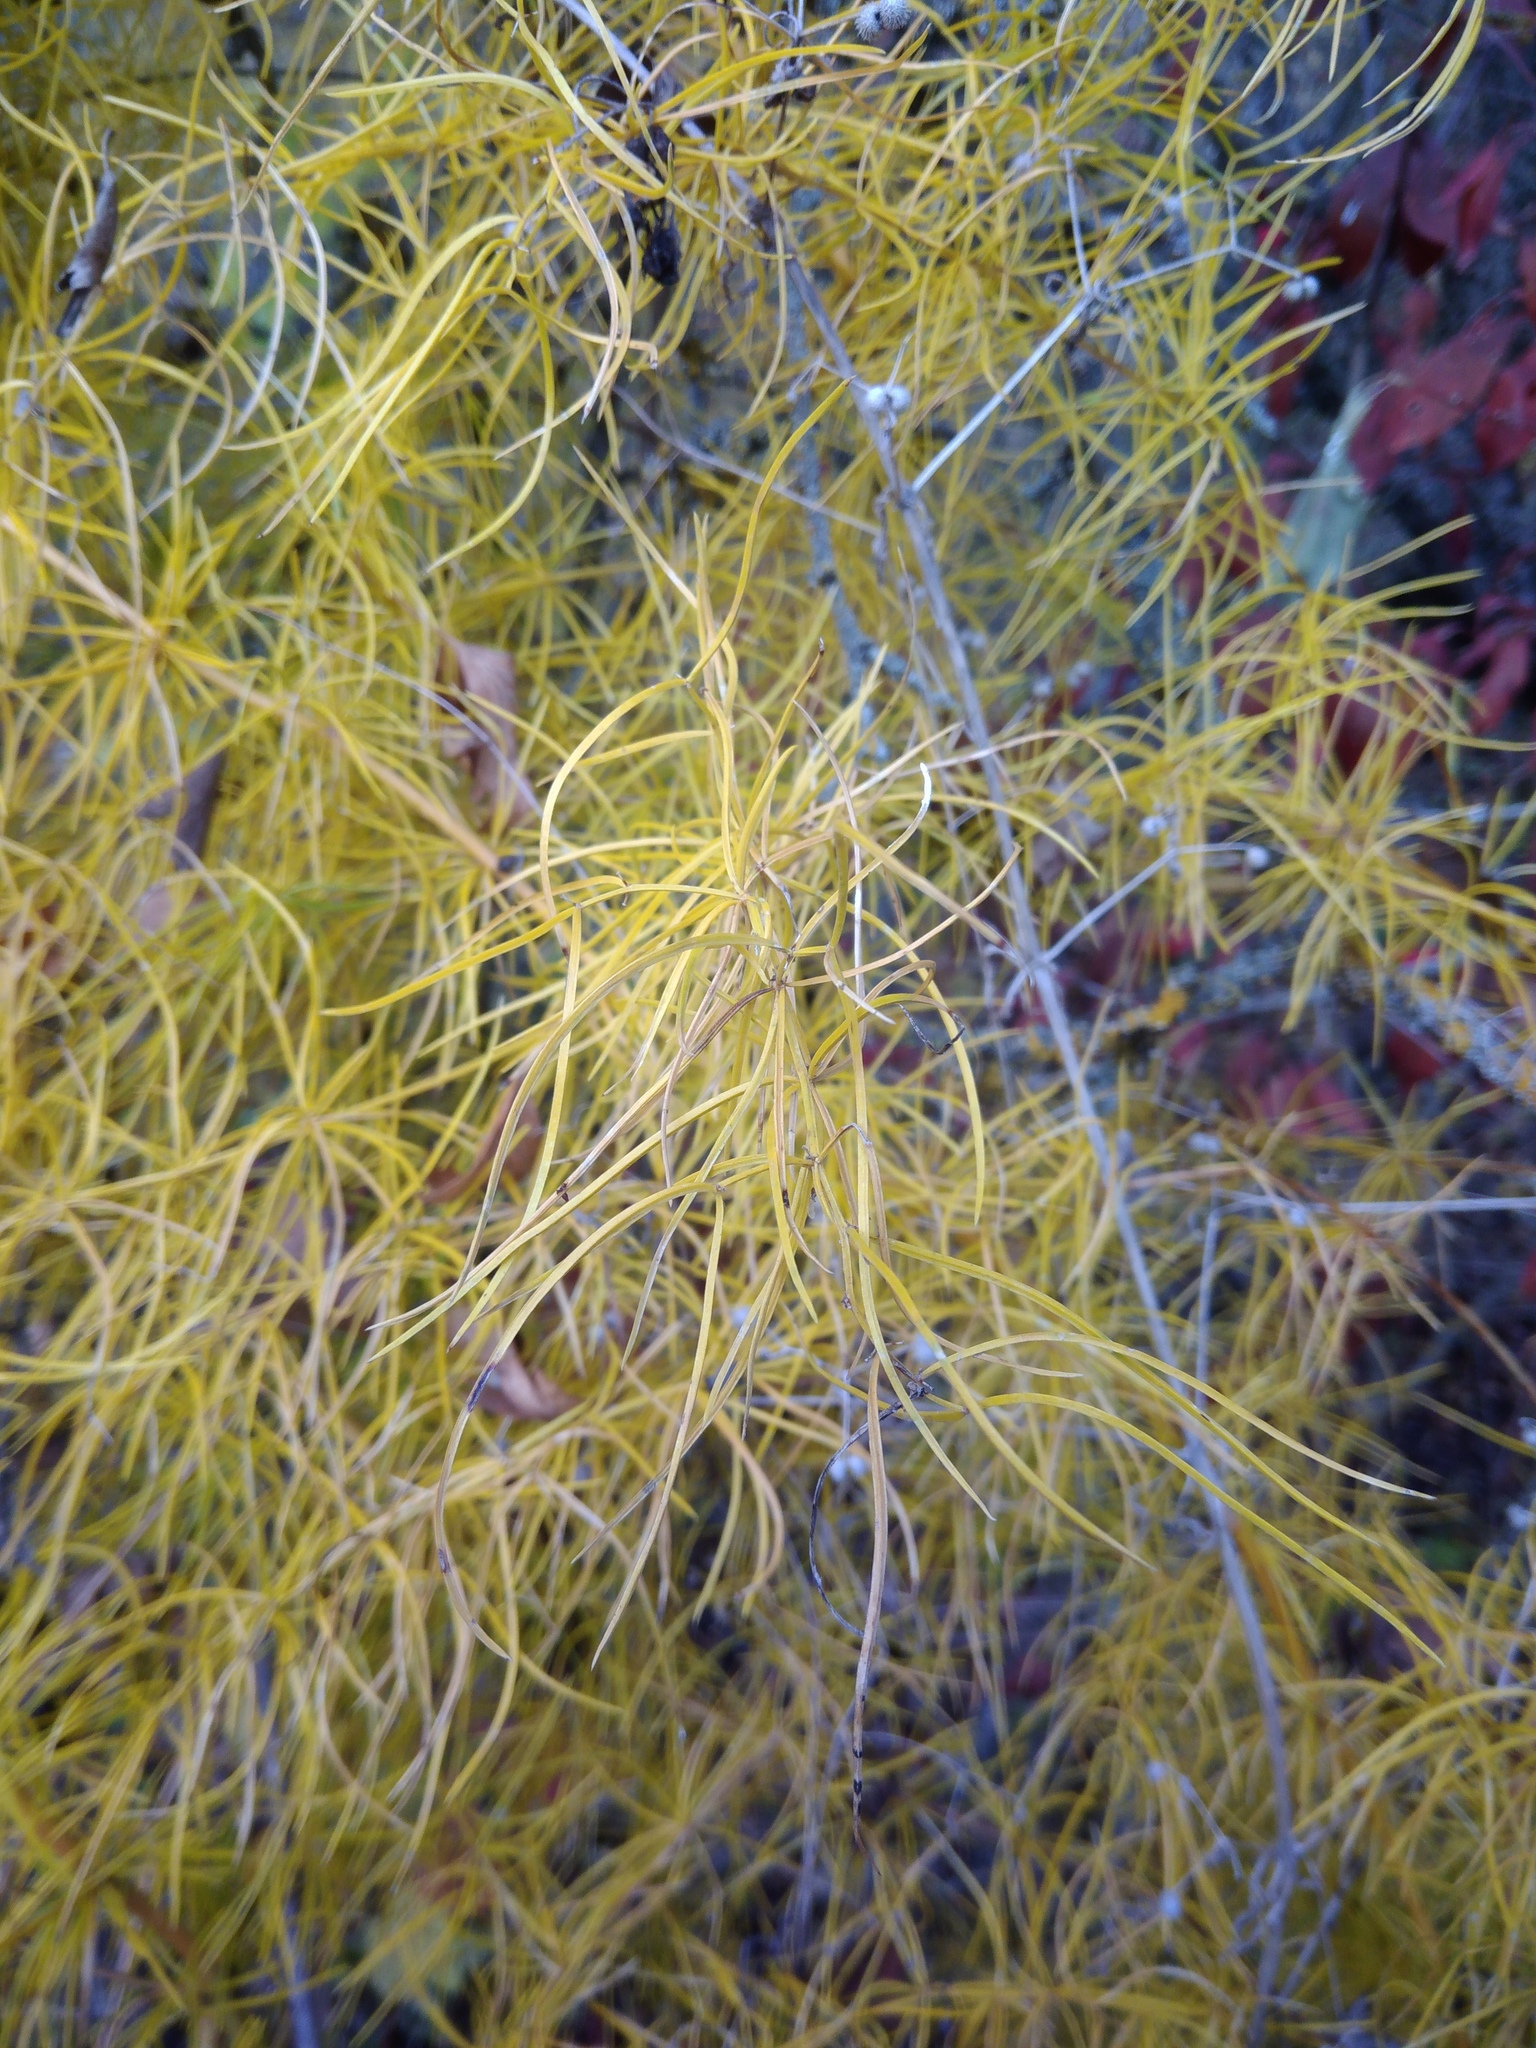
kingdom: Plantae
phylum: Tracheophyta
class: Liliopsida
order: Asparagales
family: Asparagaceae
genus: Asparagus
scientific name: Asparagus verticillatus
